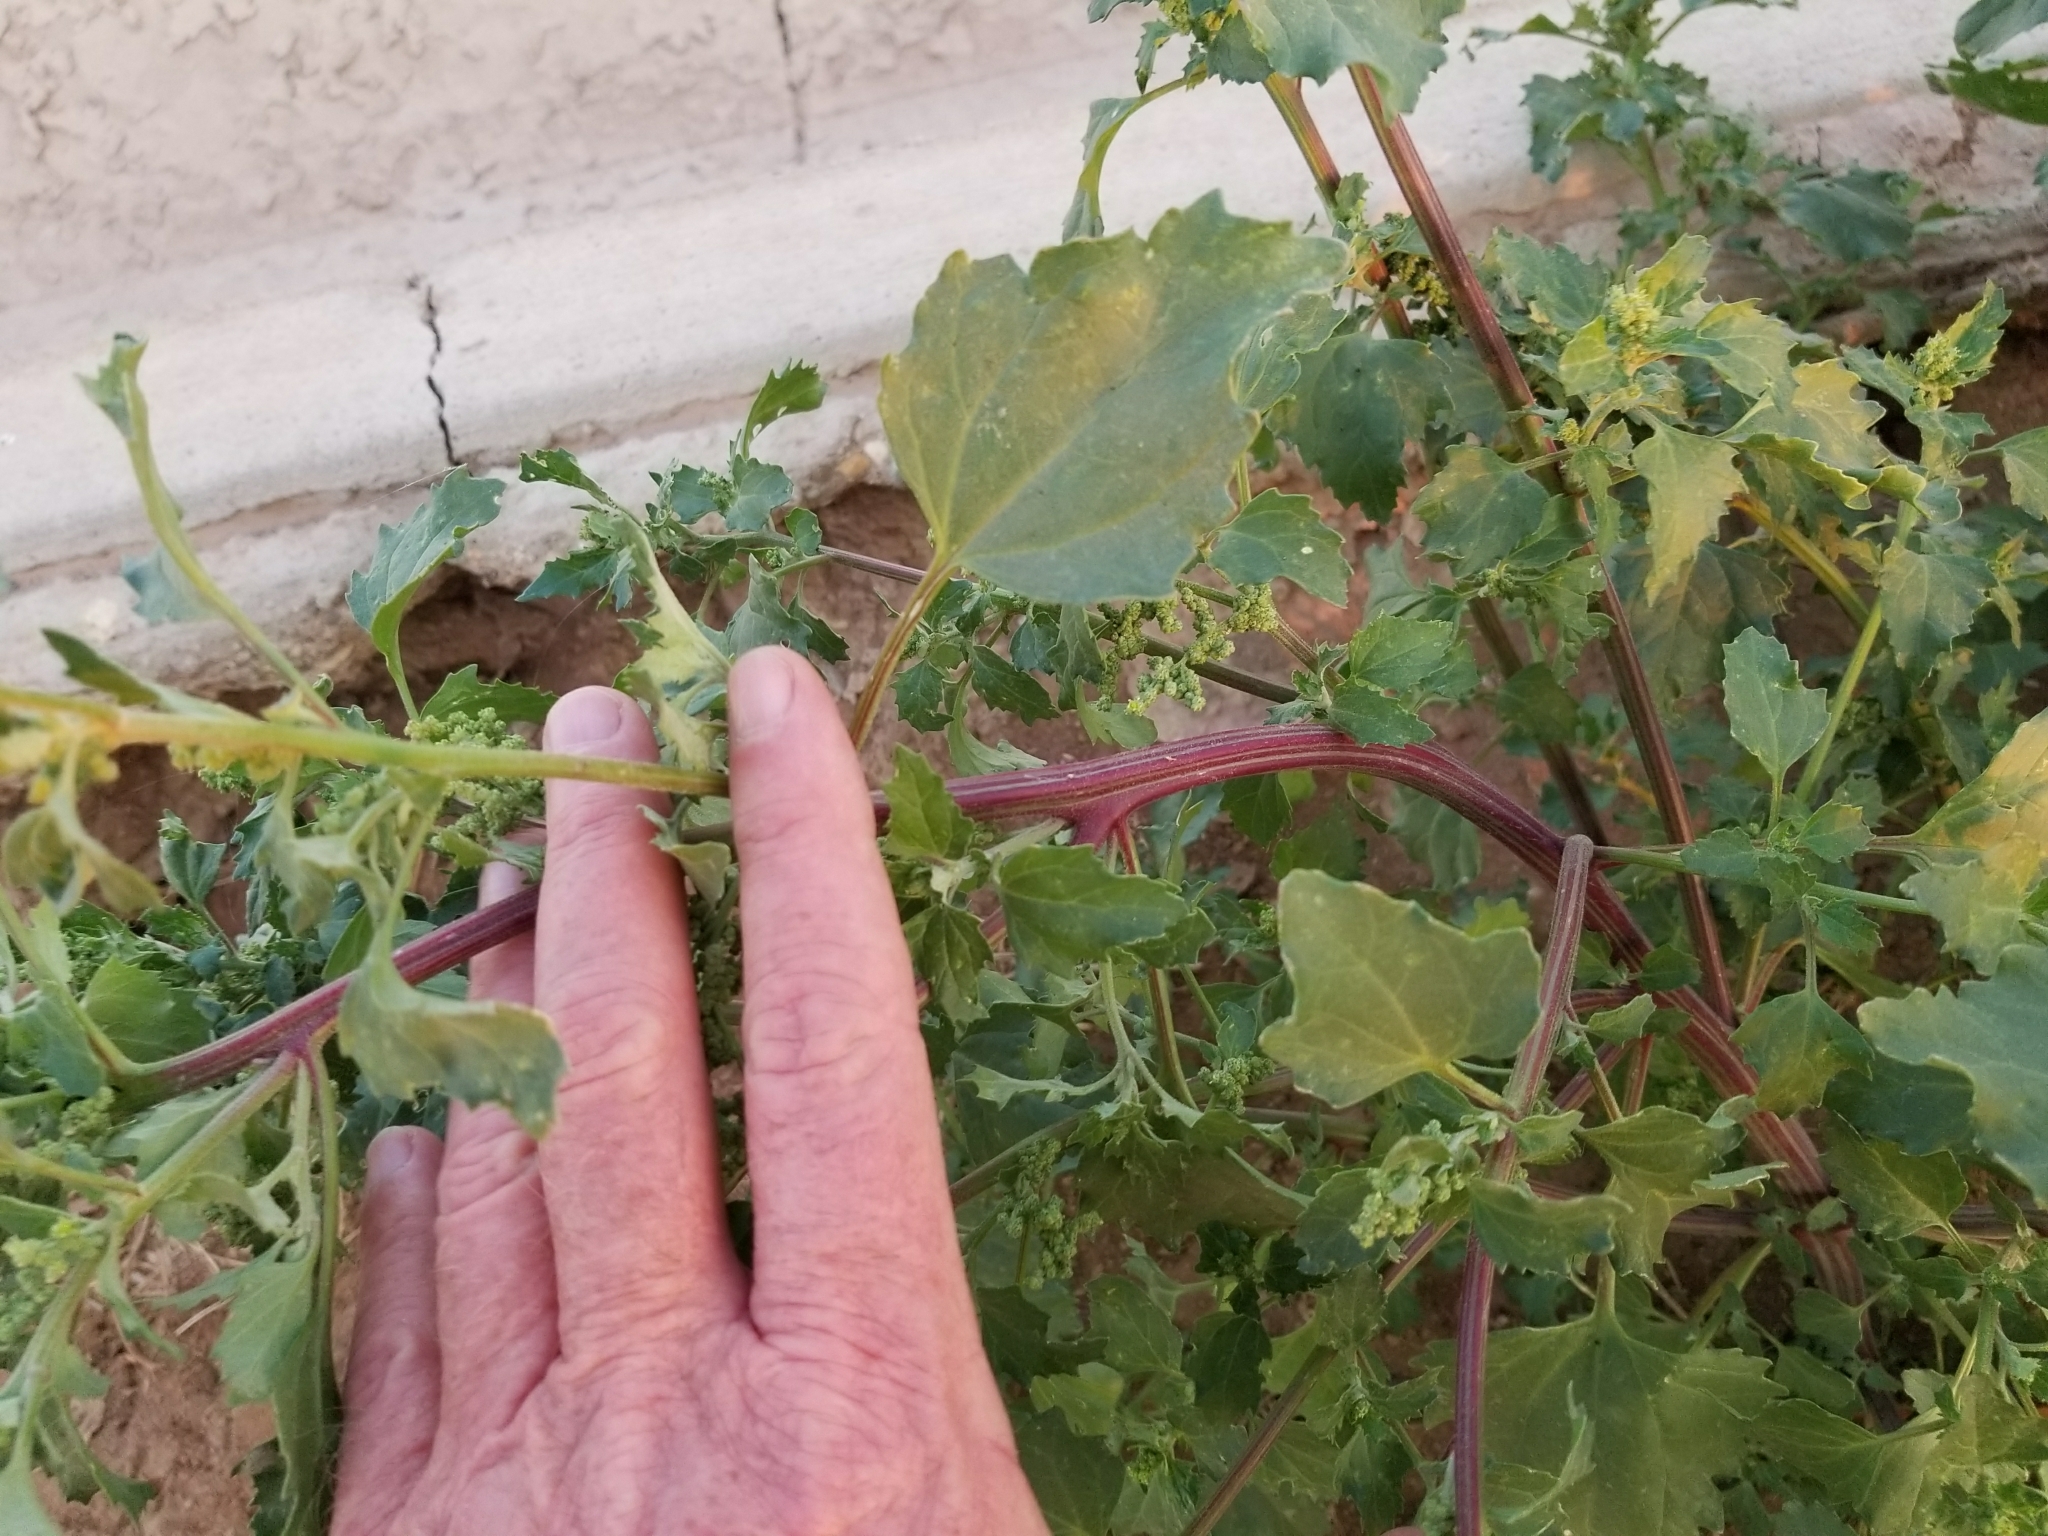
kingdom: Plantae
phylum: Tracheophyta
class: Magnoliopsida
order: Caryophyllales
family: Amaranthaceae
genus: Chenopodiastrum
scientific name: Chenopodiastrum murale
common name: Sowbane
